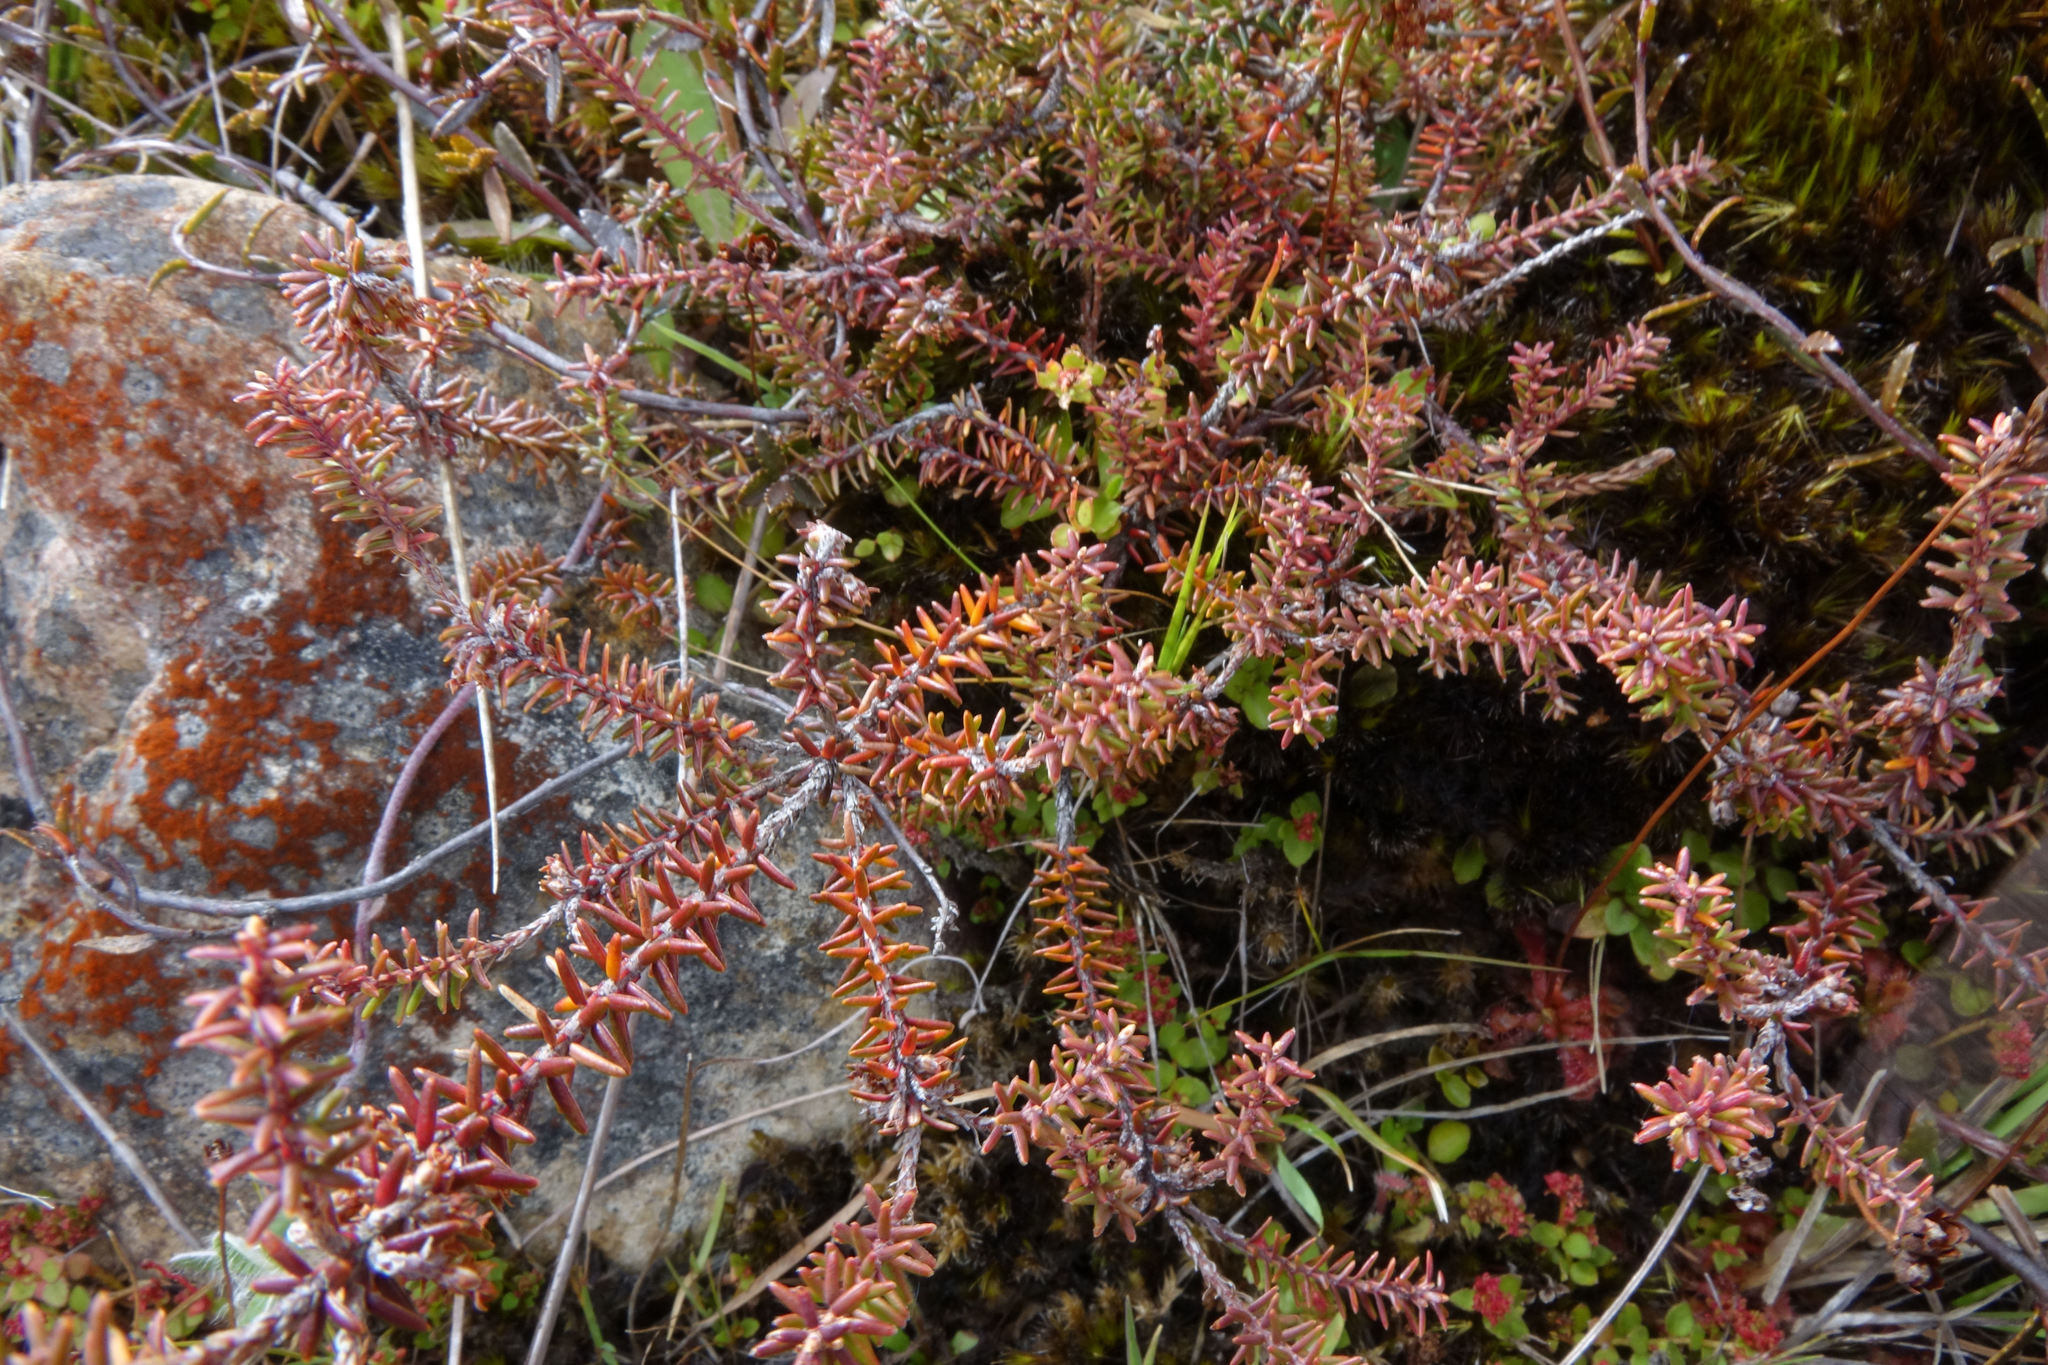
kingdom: Plantae
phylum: Tracheophyta
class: Magnoliopsida
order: Ericales
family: Ericaceae
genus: Androstoma
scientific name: Androstoma empetrifolia
